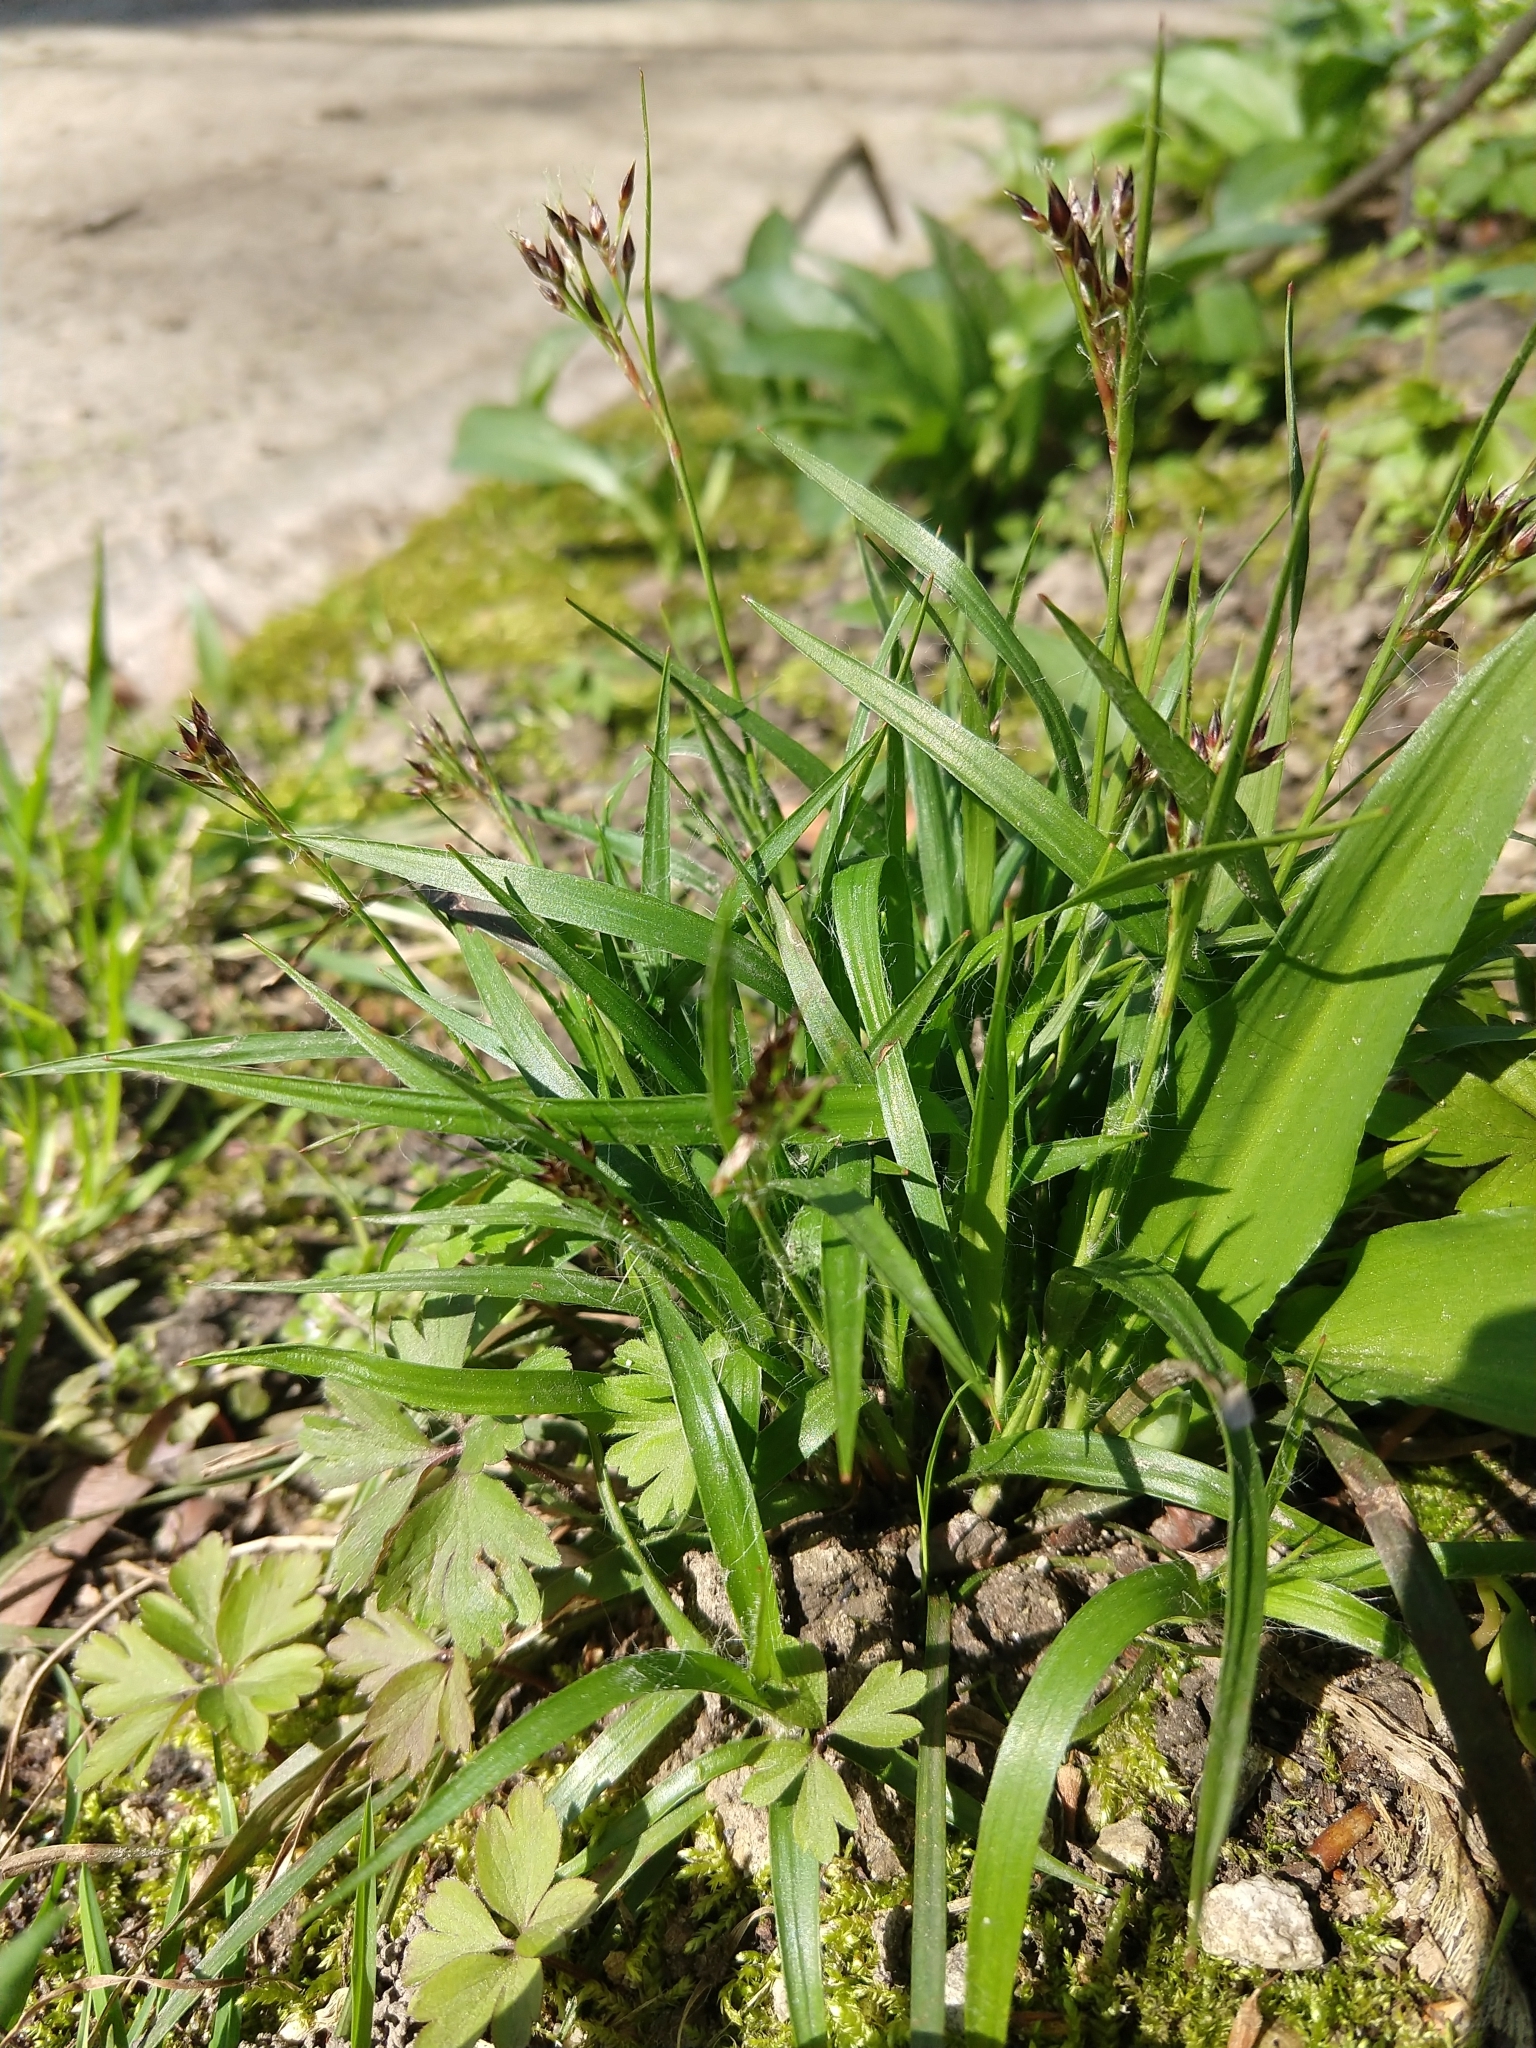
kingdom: Plantae
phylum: Tracheophyta
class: Liliopsida
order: Poales
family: Juncaceae
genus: Luzula
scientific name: Luzula forsteri
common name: Southern wood-rush
